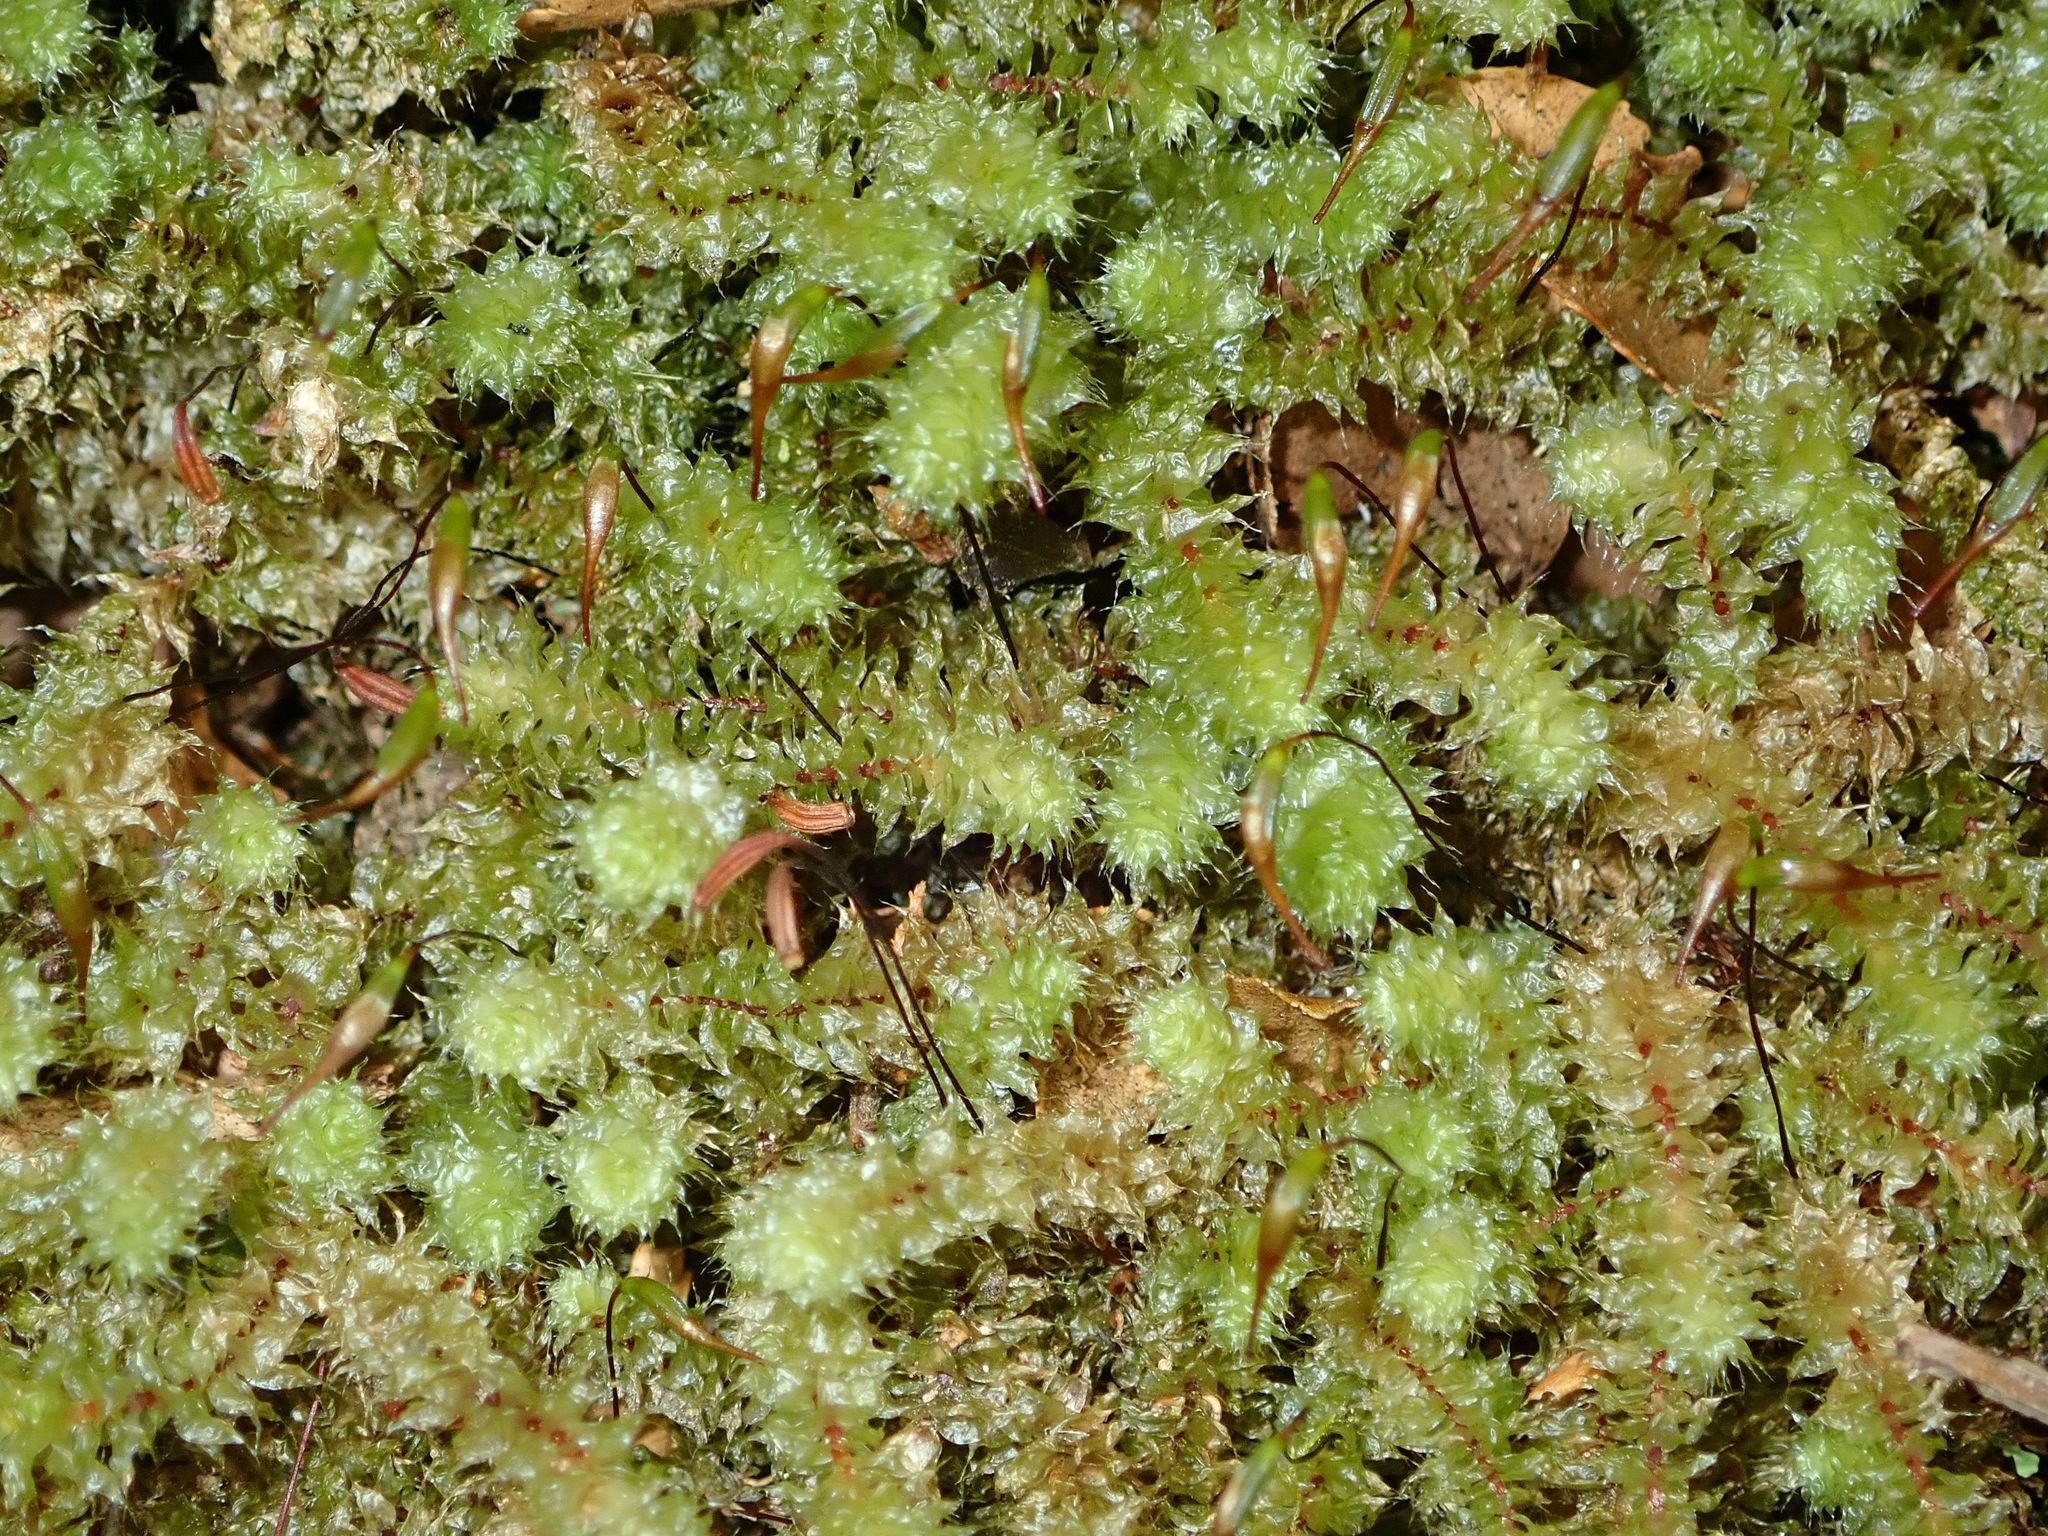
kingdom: Plantae
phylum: Bryophyta
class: Bryopsida
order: Ptychomniales
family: Ptychomniaceae
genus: Ptychomnion
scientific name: Ptychomnion aciculare
